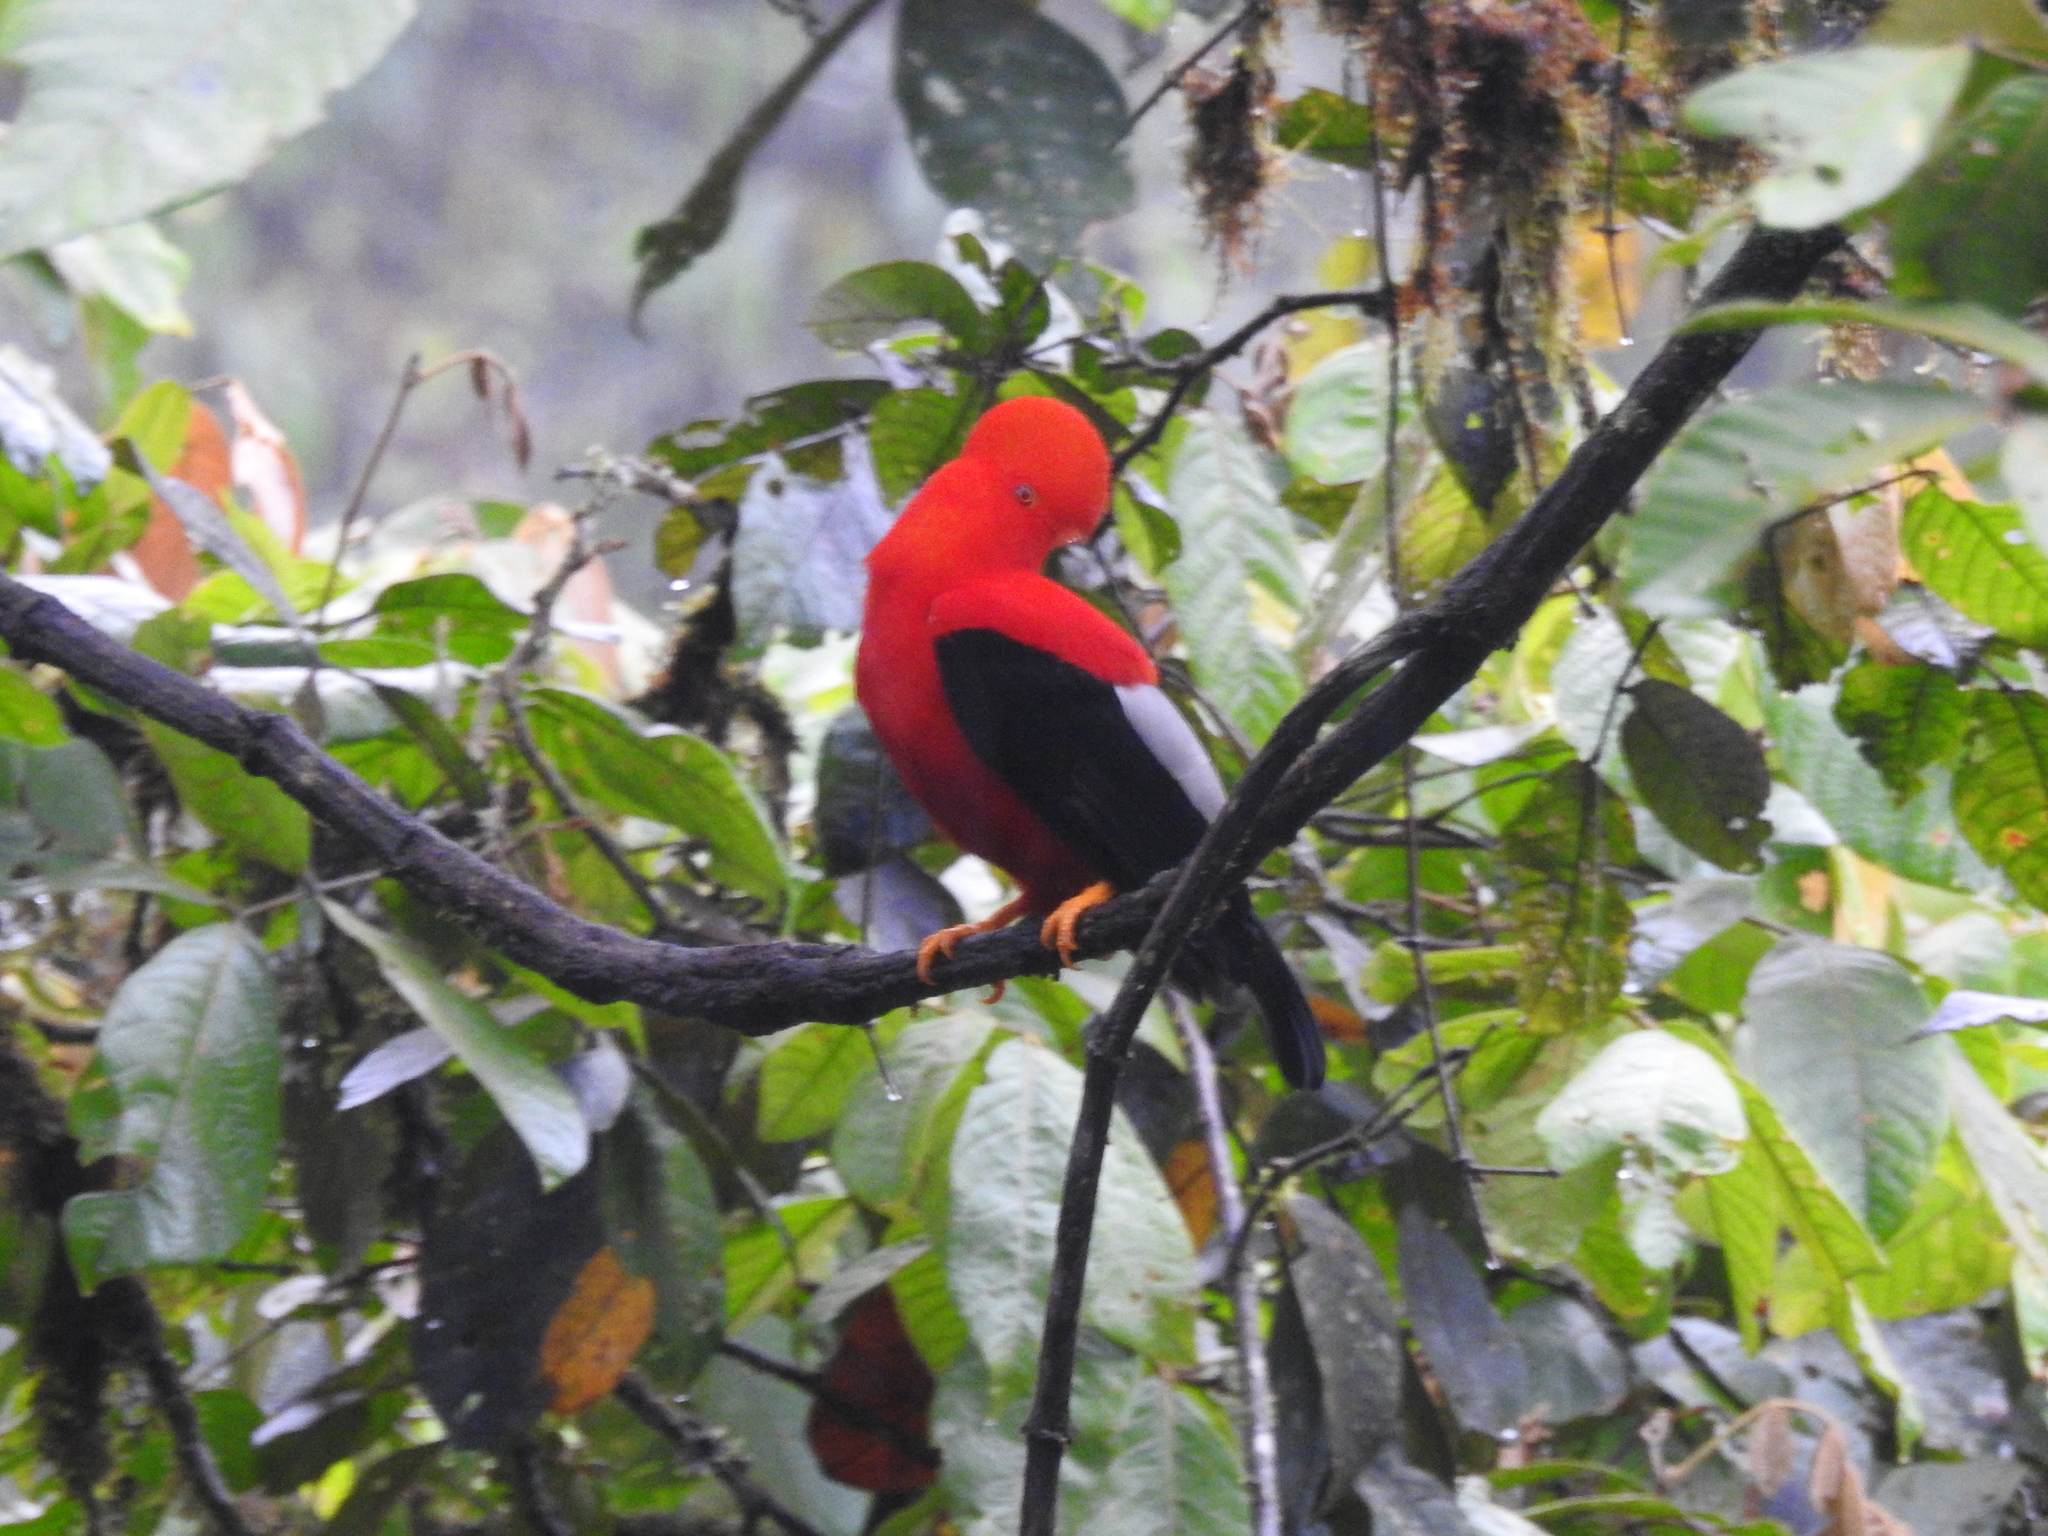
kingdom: Animalia
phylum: Chordata
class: Aves
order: Passeriformes
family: Cotingidae
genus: Rupicola
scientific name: Rupicola peruvianus
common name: Andean cock-of-the-rock
